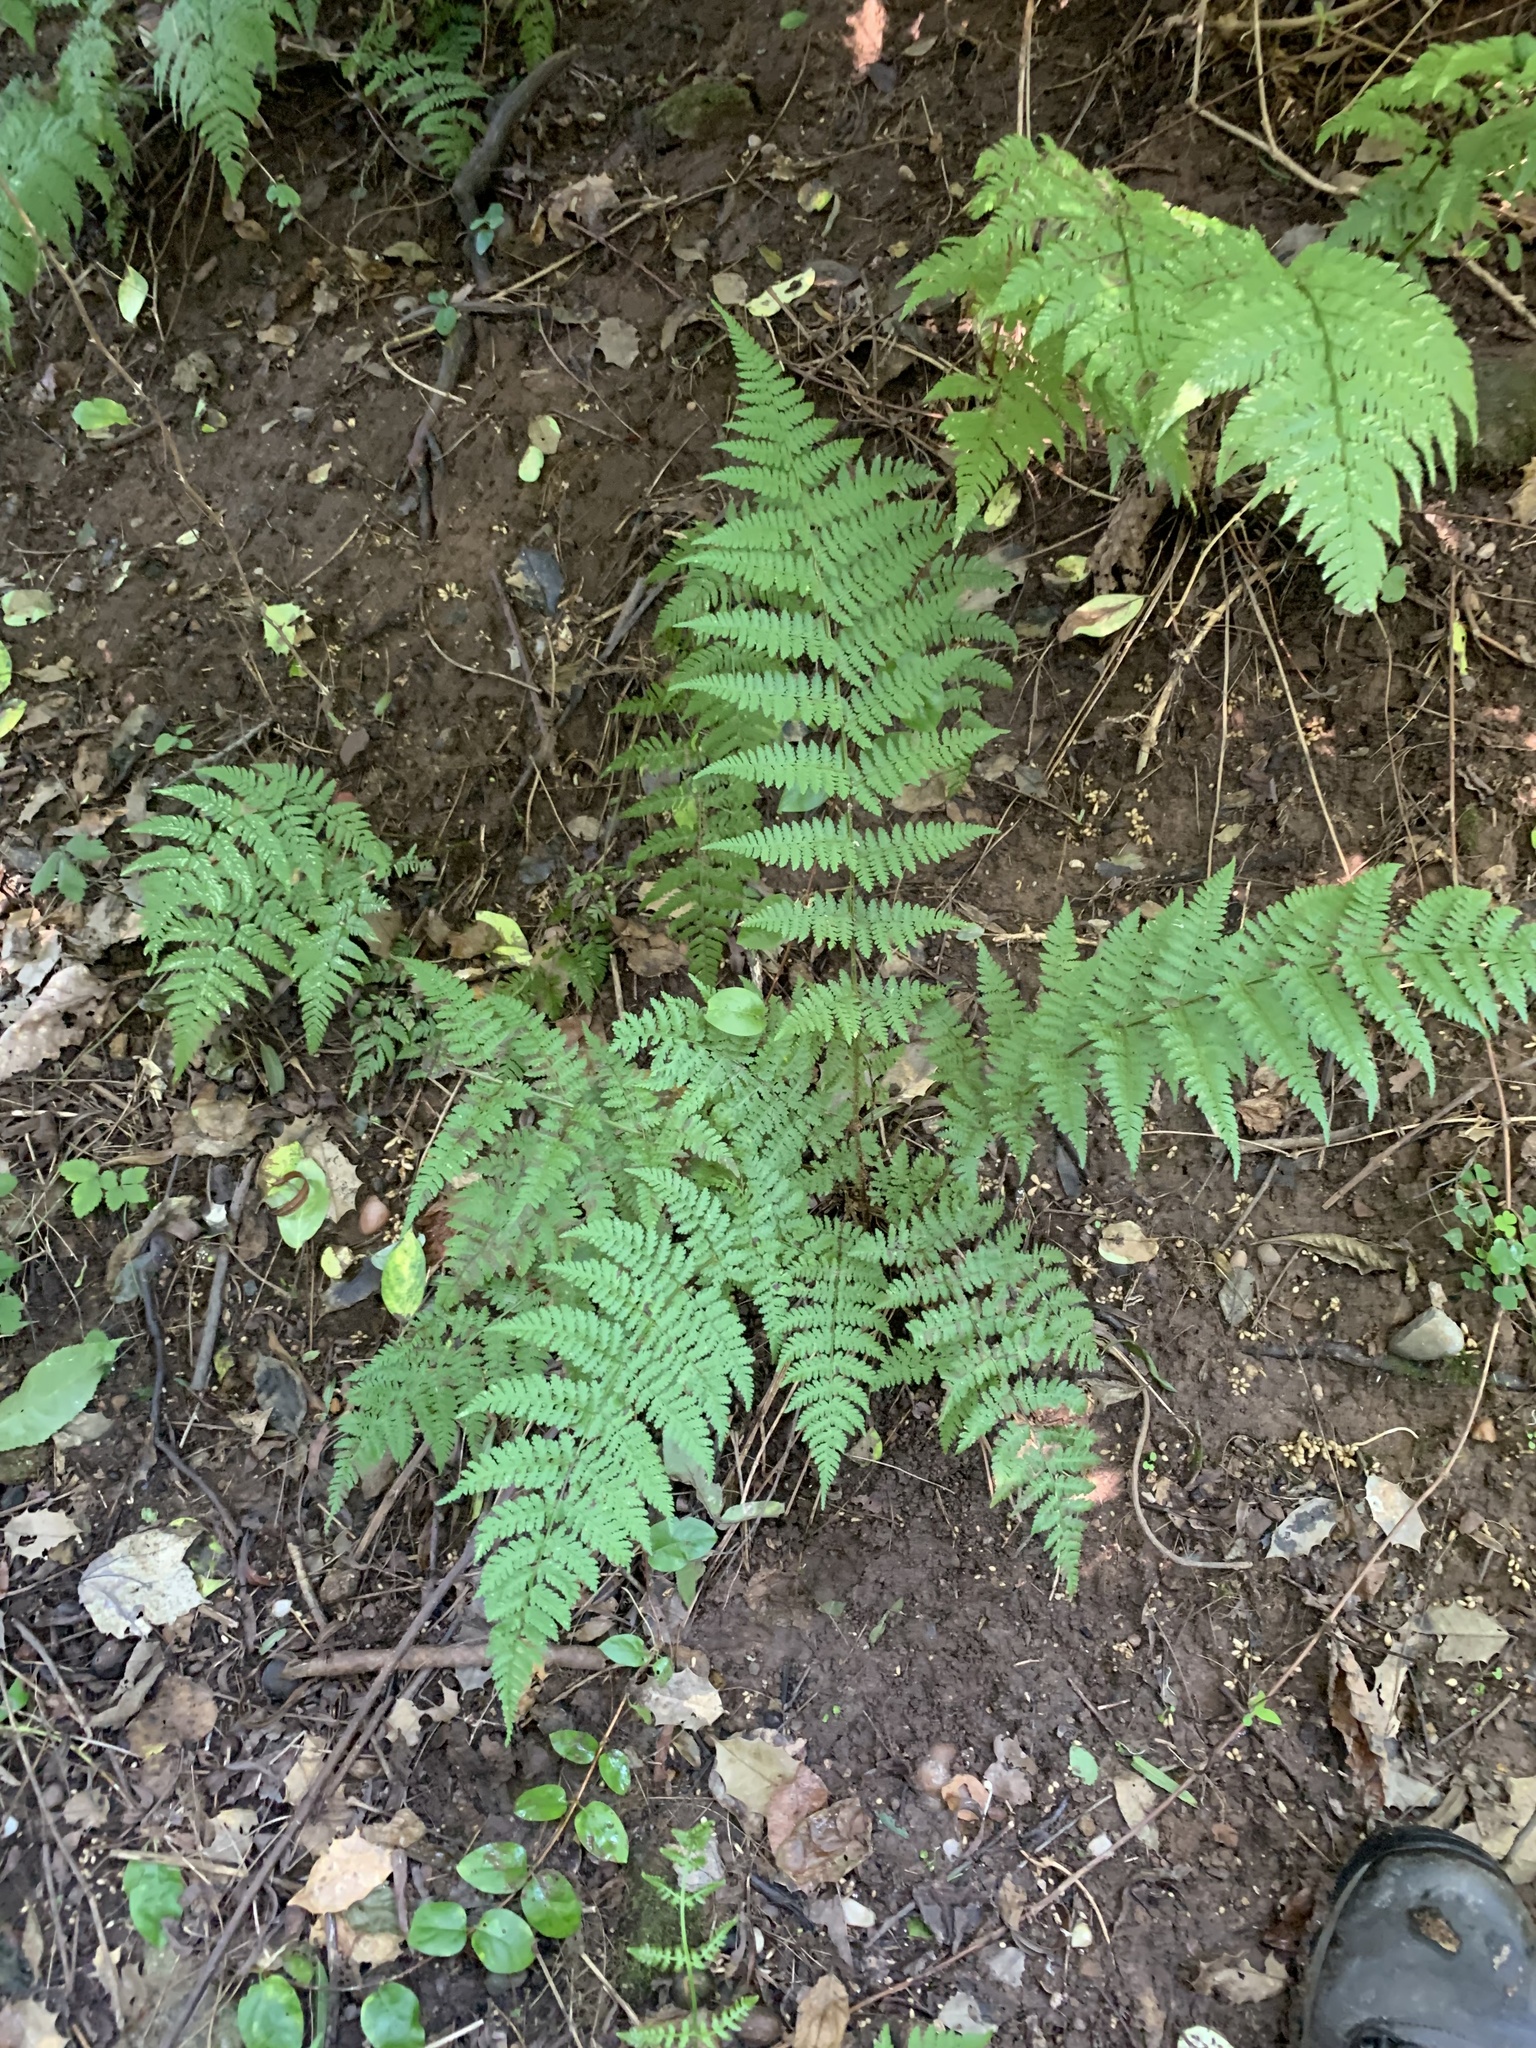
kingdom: Plantae
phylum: Tracheophyta
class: Polypodiopsida
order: Polypodiales
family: Dryopteridaceae
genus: Dryopteris
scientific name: Dryopteris intermedia
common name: Evergreen wood fern
